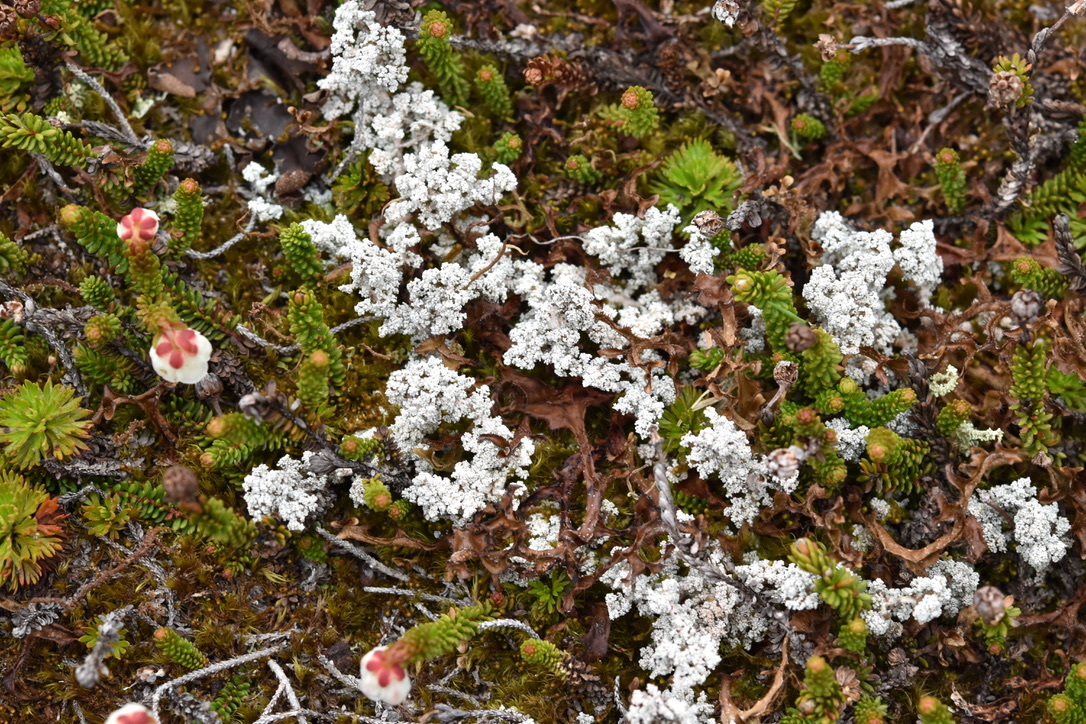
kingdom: Plantae
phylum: Tracheophyta
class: Magnoliopsida
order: Ericales
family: Ericaceae
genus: Harrimanella
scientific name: Harrimanella stelleriana
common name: Alaska bell heather
